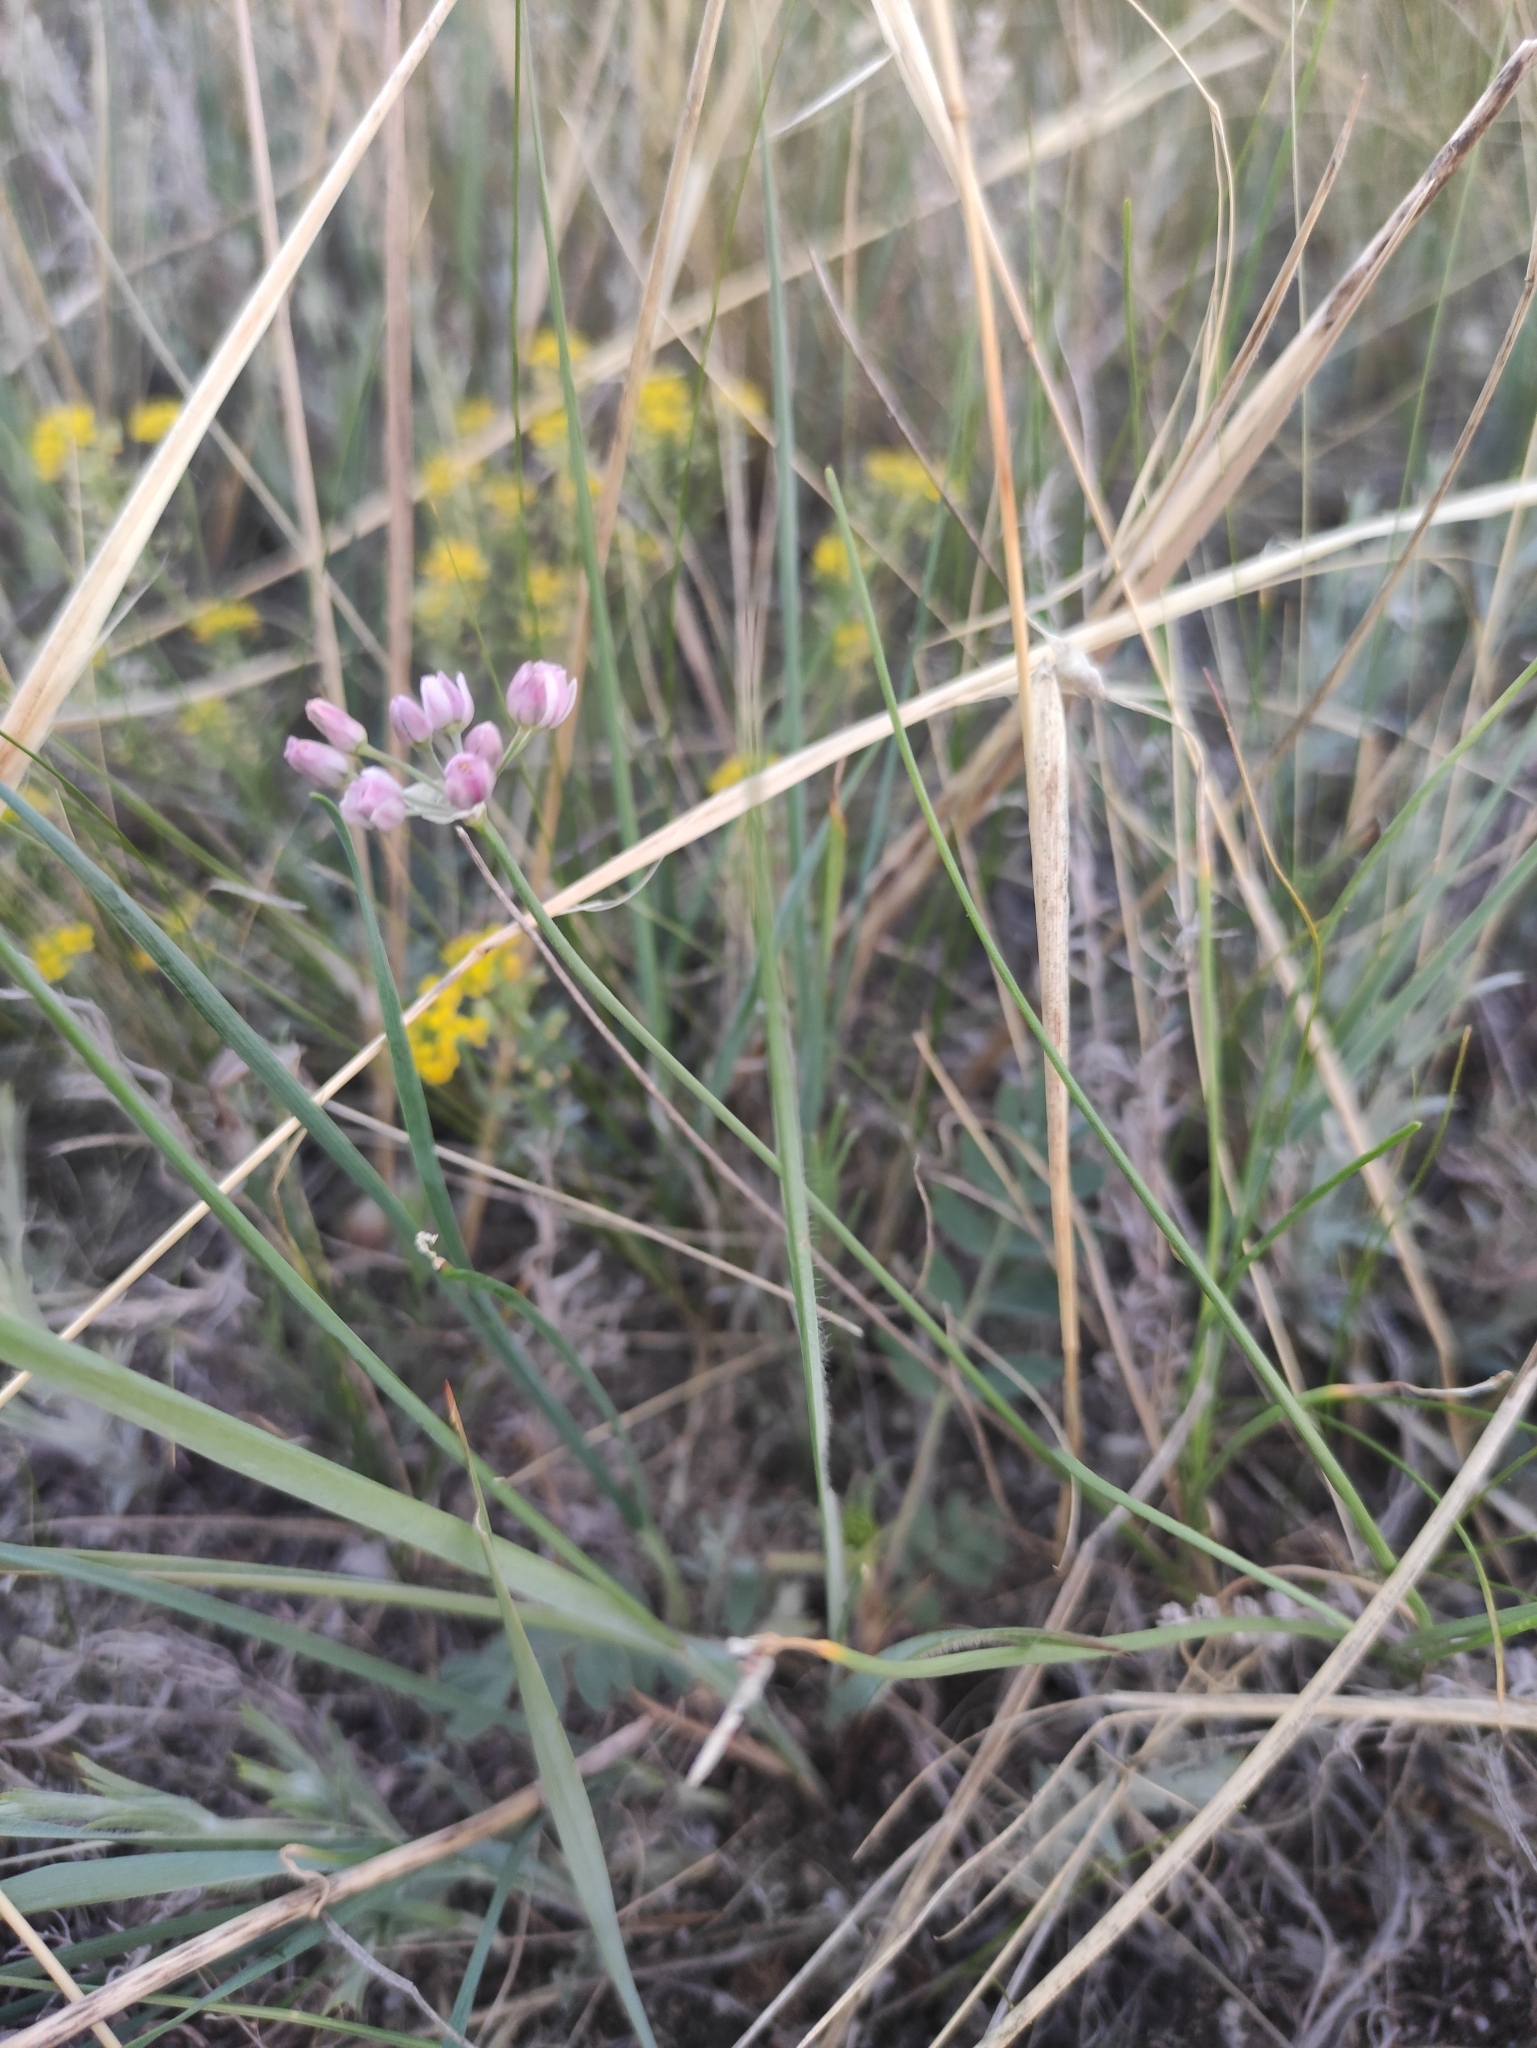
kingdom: Plantae
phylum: Tracheophyta
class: Liliopsida
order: Asparagales
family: Amaryllidaceae
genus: Allium
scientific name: Allium tenuissimum
